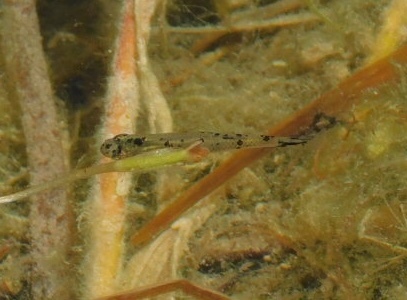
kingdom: Animalia
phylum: Chordata
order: Cyprinodontiformes
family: Poeciliidae
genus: Gambusia
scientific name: Gambusia holbrooki
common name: Eastern mosquitofish
